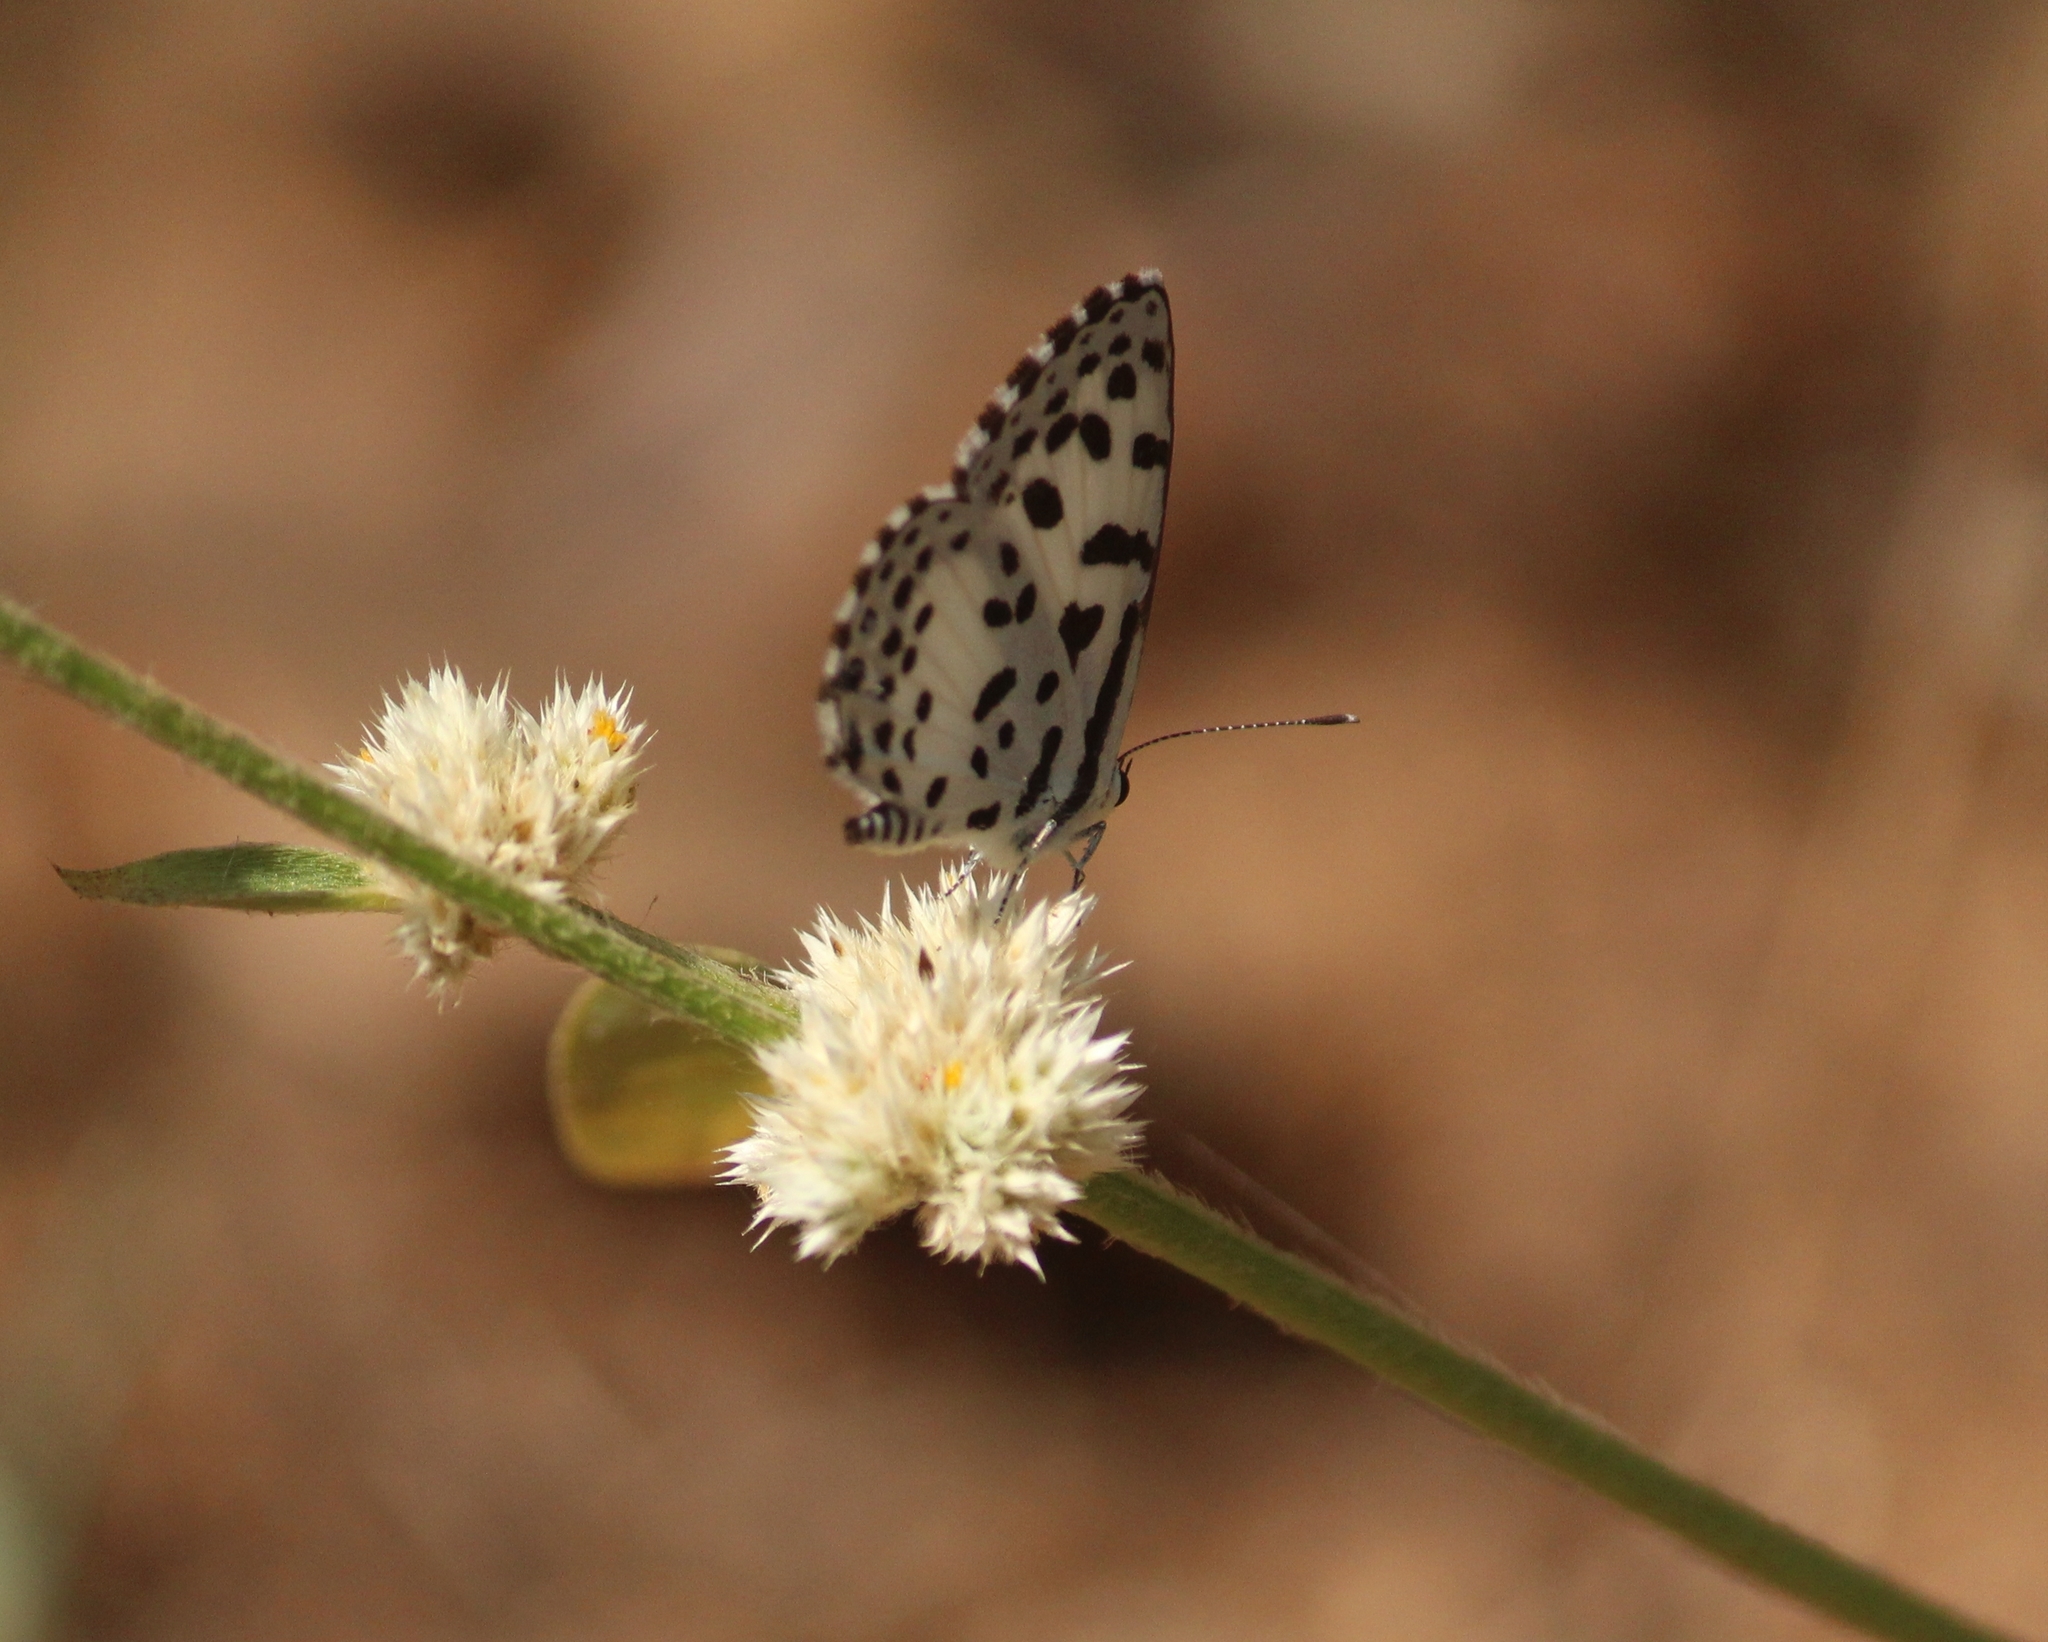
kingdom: Animalia
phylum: Arthropoda
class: Insecta
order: Lepidoptera
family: Lycaenidae
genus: Castalius
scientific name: Castalius rosimon
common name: Common pierrot
